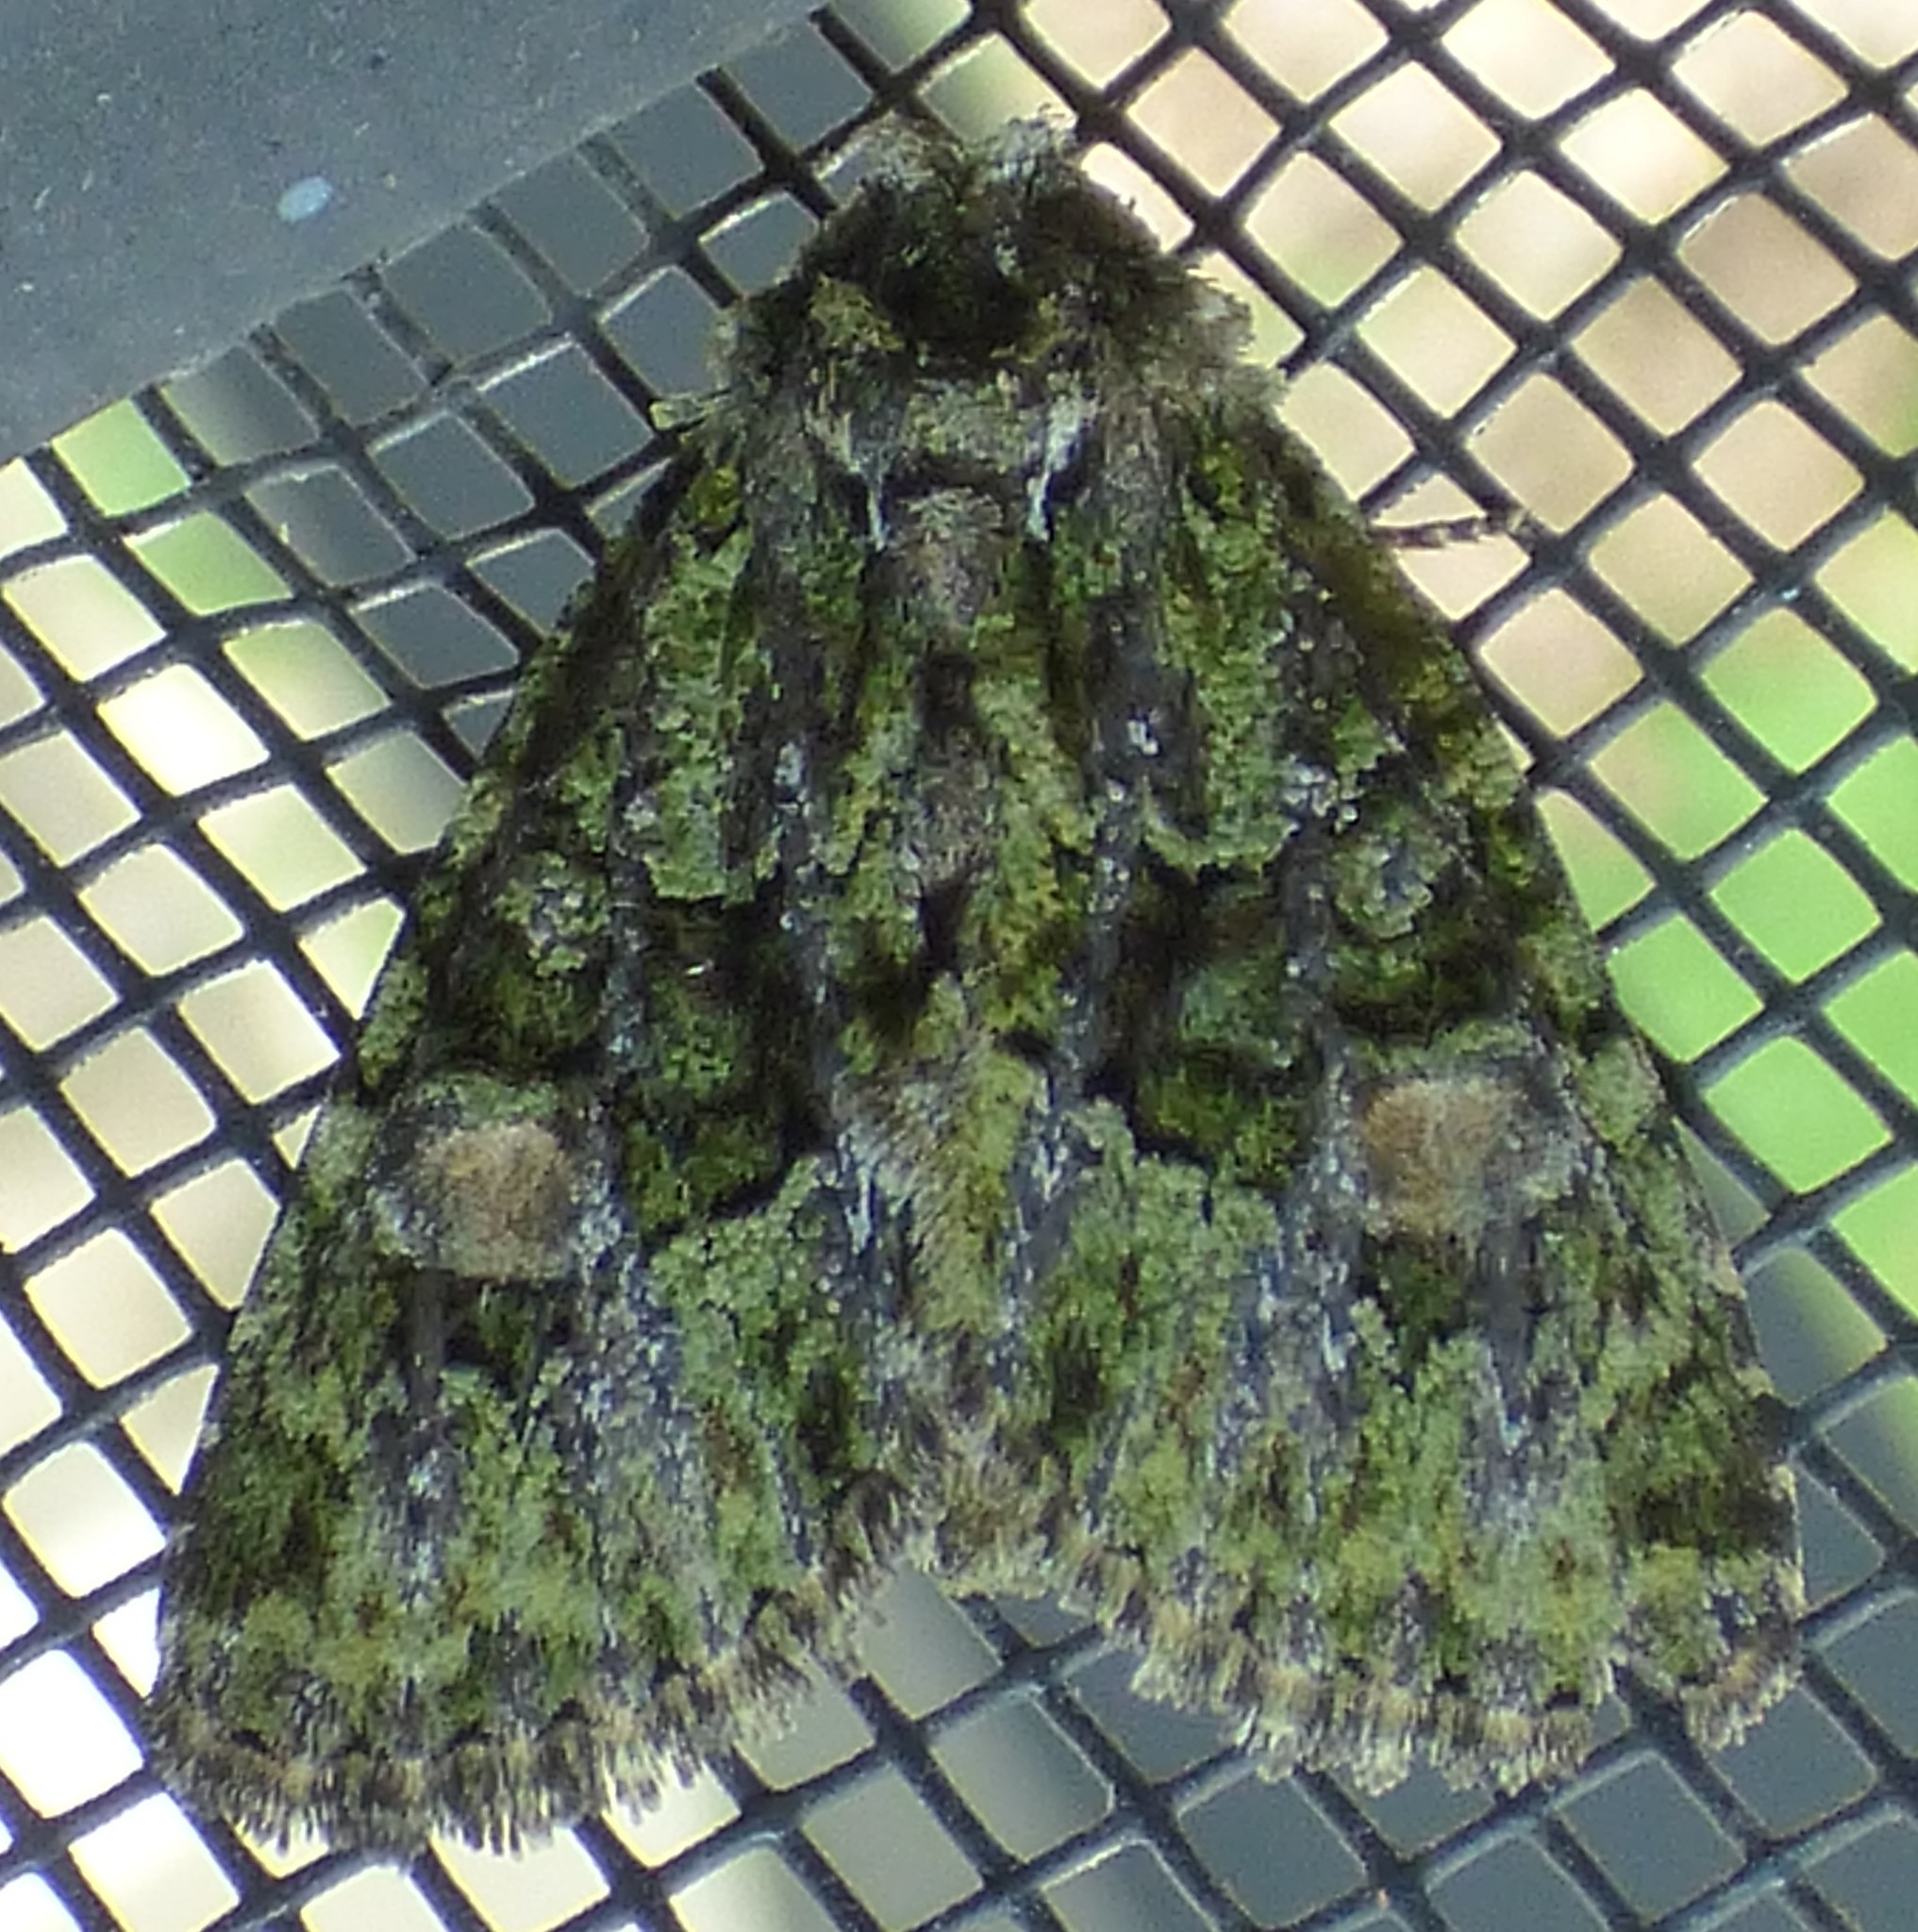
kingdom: Animalia
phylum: Arthropoda
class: Insecta
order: Lepidoptera
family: Noctuidae
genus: Phosphila
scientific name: Phosphila miselioides
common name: Spotted phosphila moth
